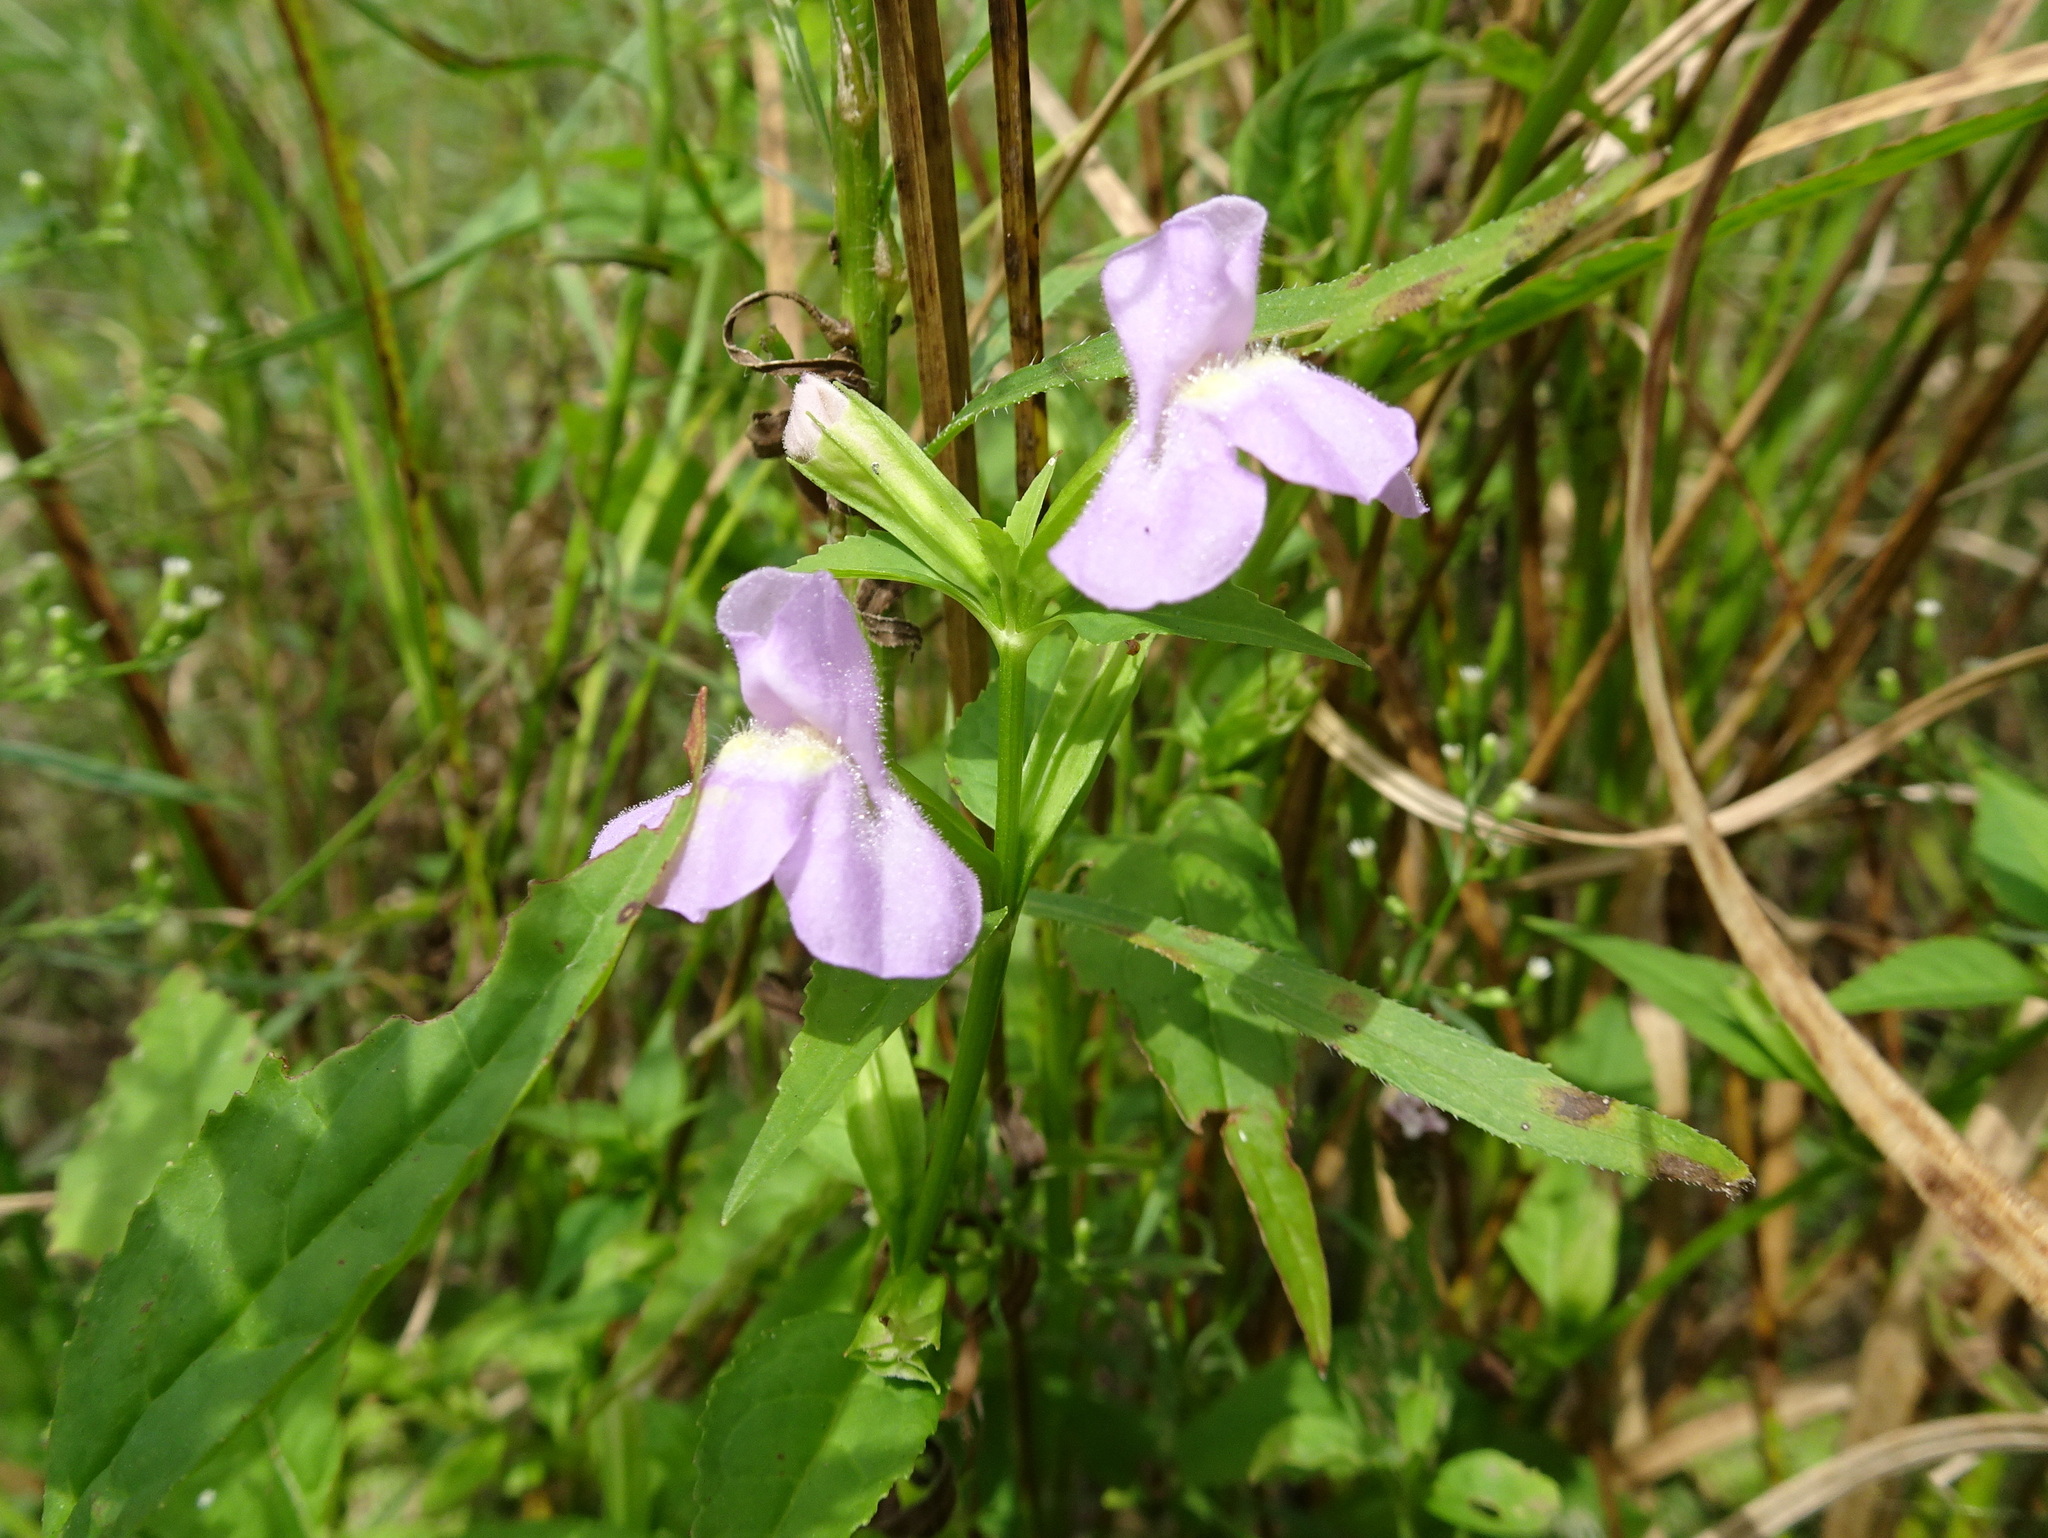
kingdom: Plantae
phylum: Tracheophyta
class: Magnoliopsida
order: Lamiales
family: Phrymaceae
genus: Mimulus
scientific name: Mimulus alatus
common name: Sharp-wing monkey-flower
